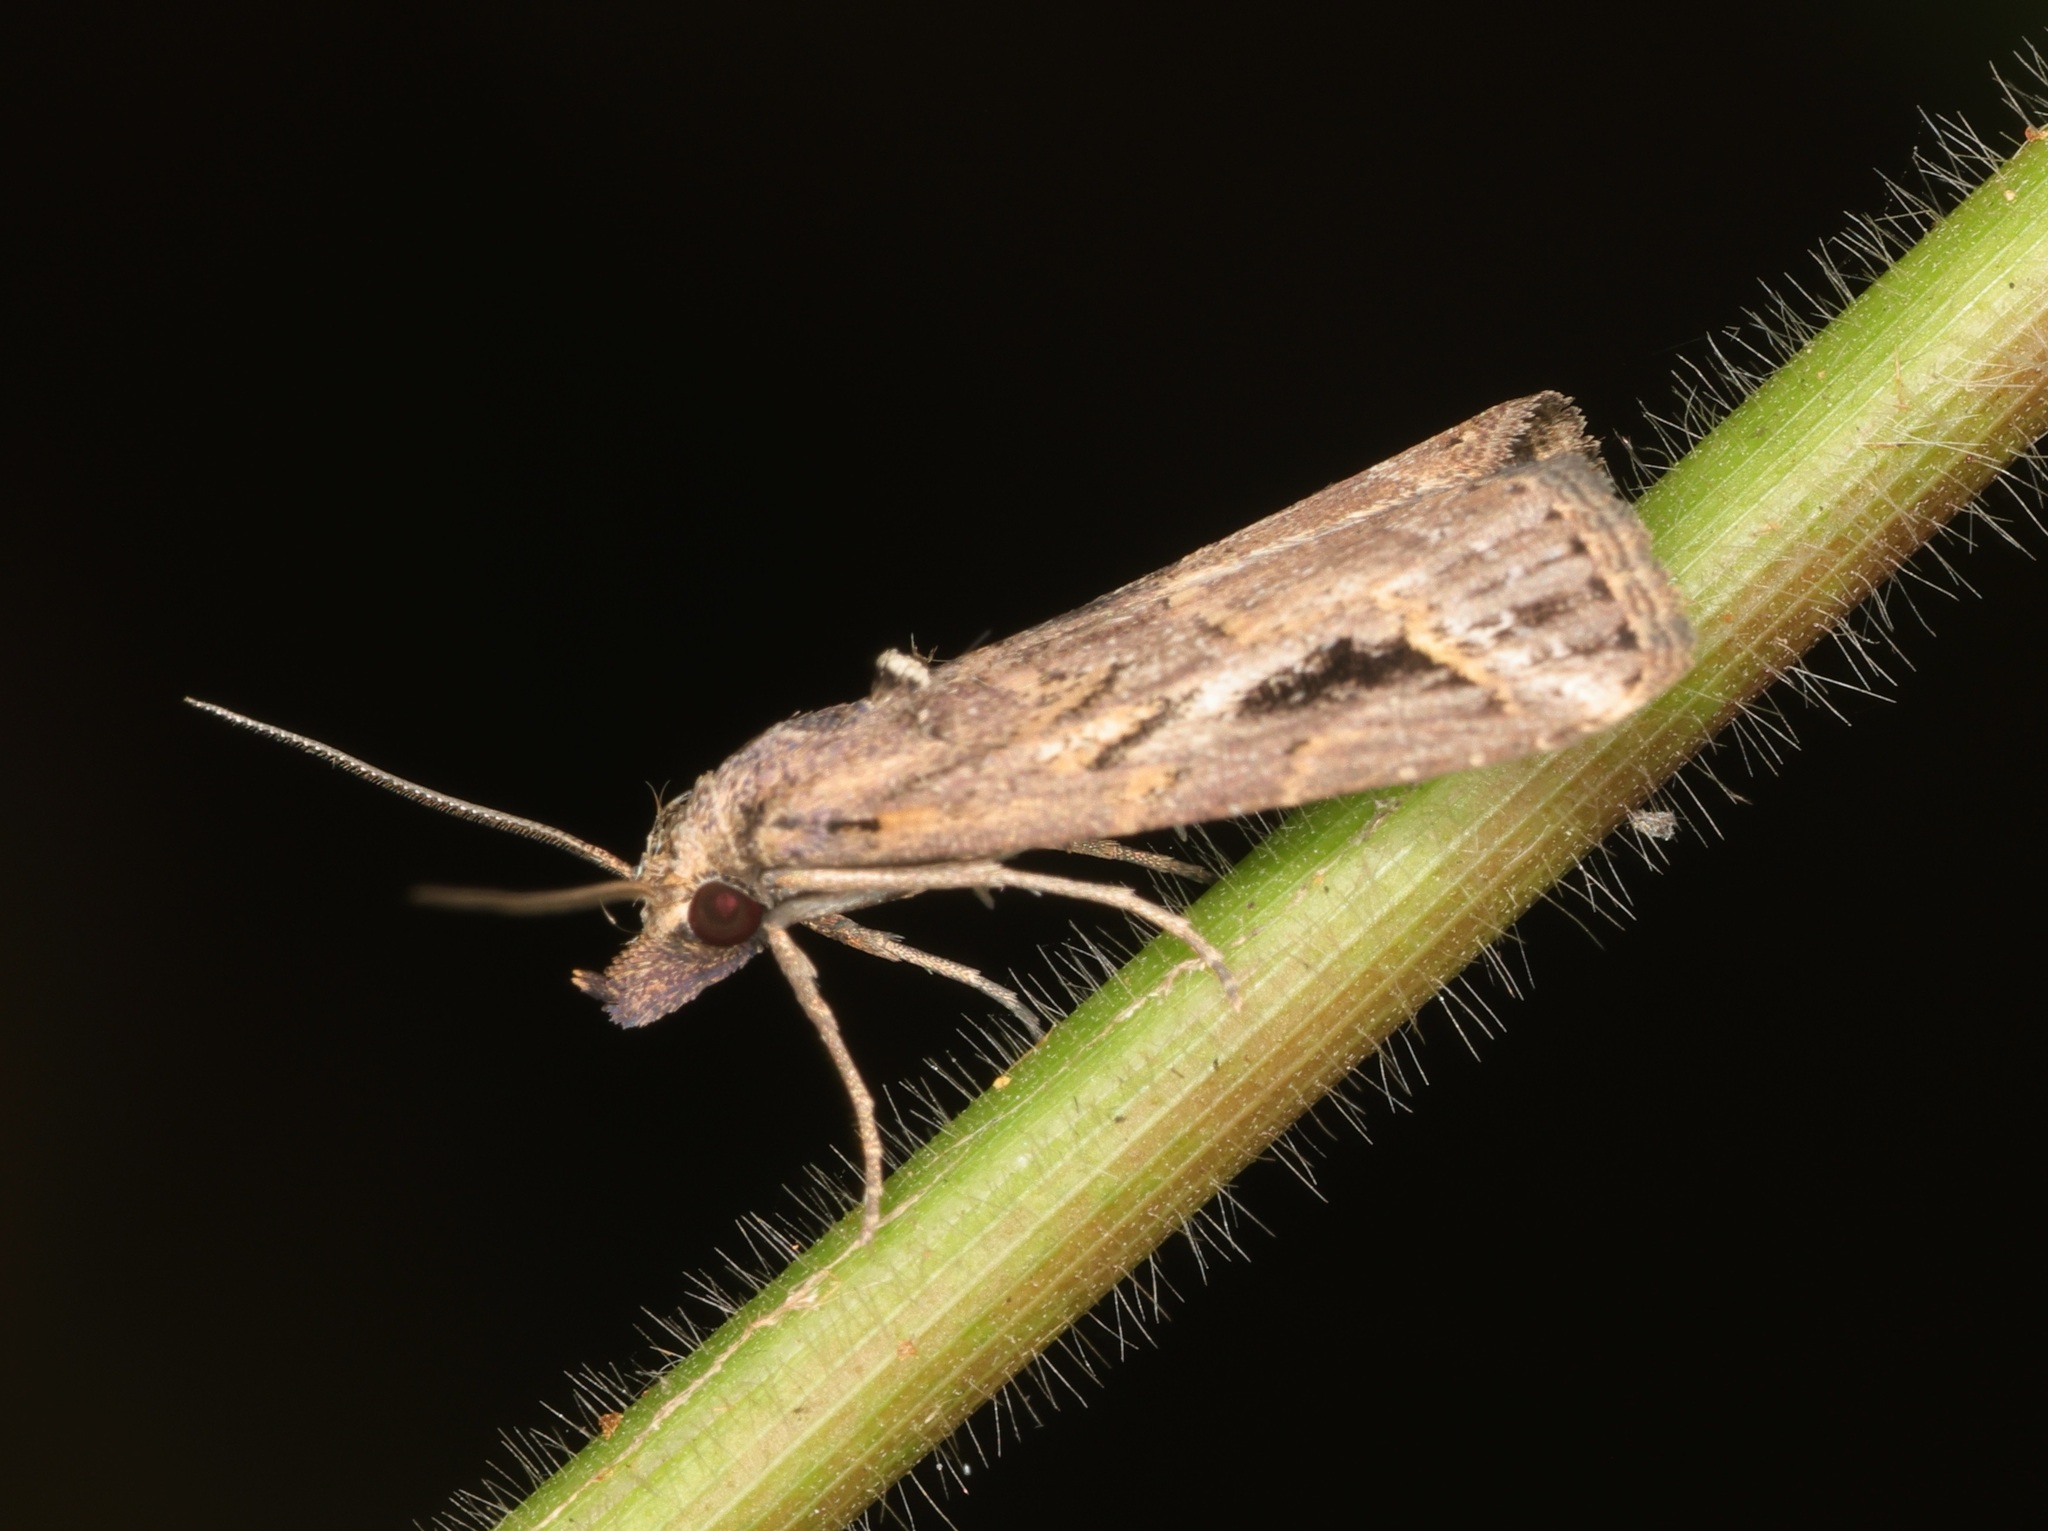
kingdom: Animalia
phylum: Arthropoda
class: Insecta
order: Lepidoptera
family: Erebidae
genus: Schrankia
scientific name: Schrankia costaestrigalis
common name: Pinion-streaked snout
